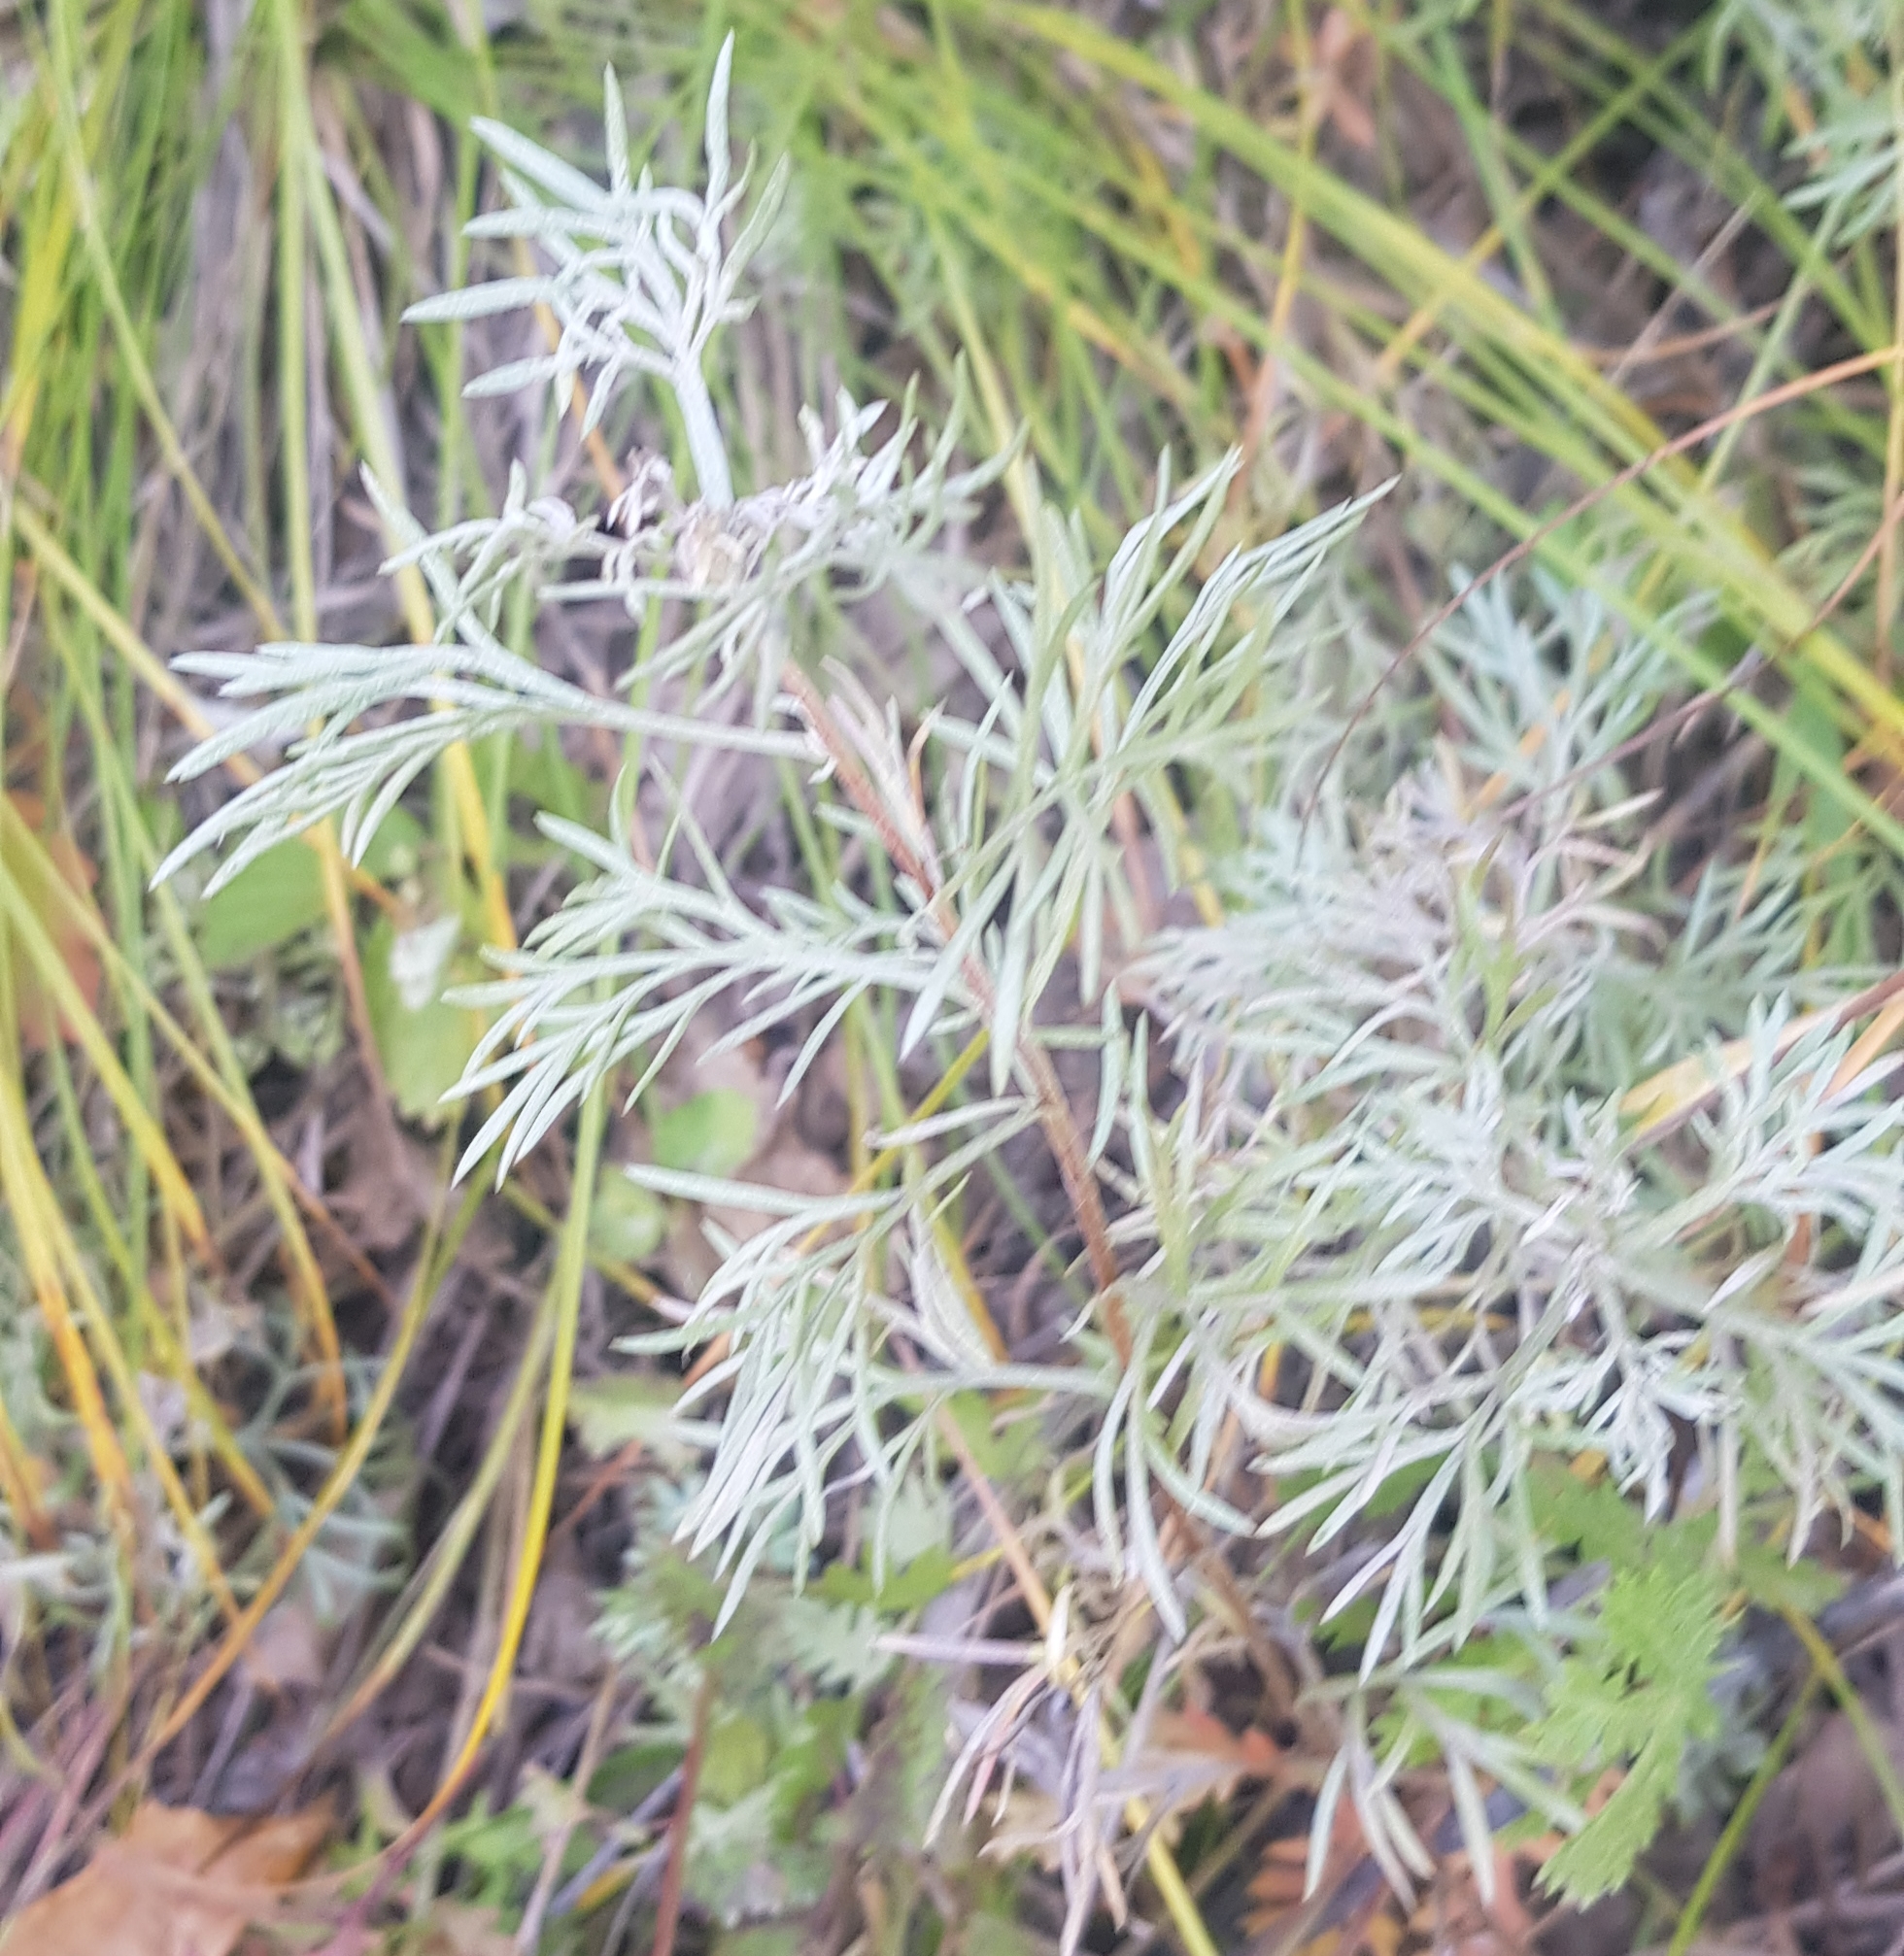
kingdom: Plantae
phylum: Tracheophyta
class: Magnoliopsida
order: Asterales
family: Asteraceae
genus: Artemisia
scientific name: Artemisia sericea
